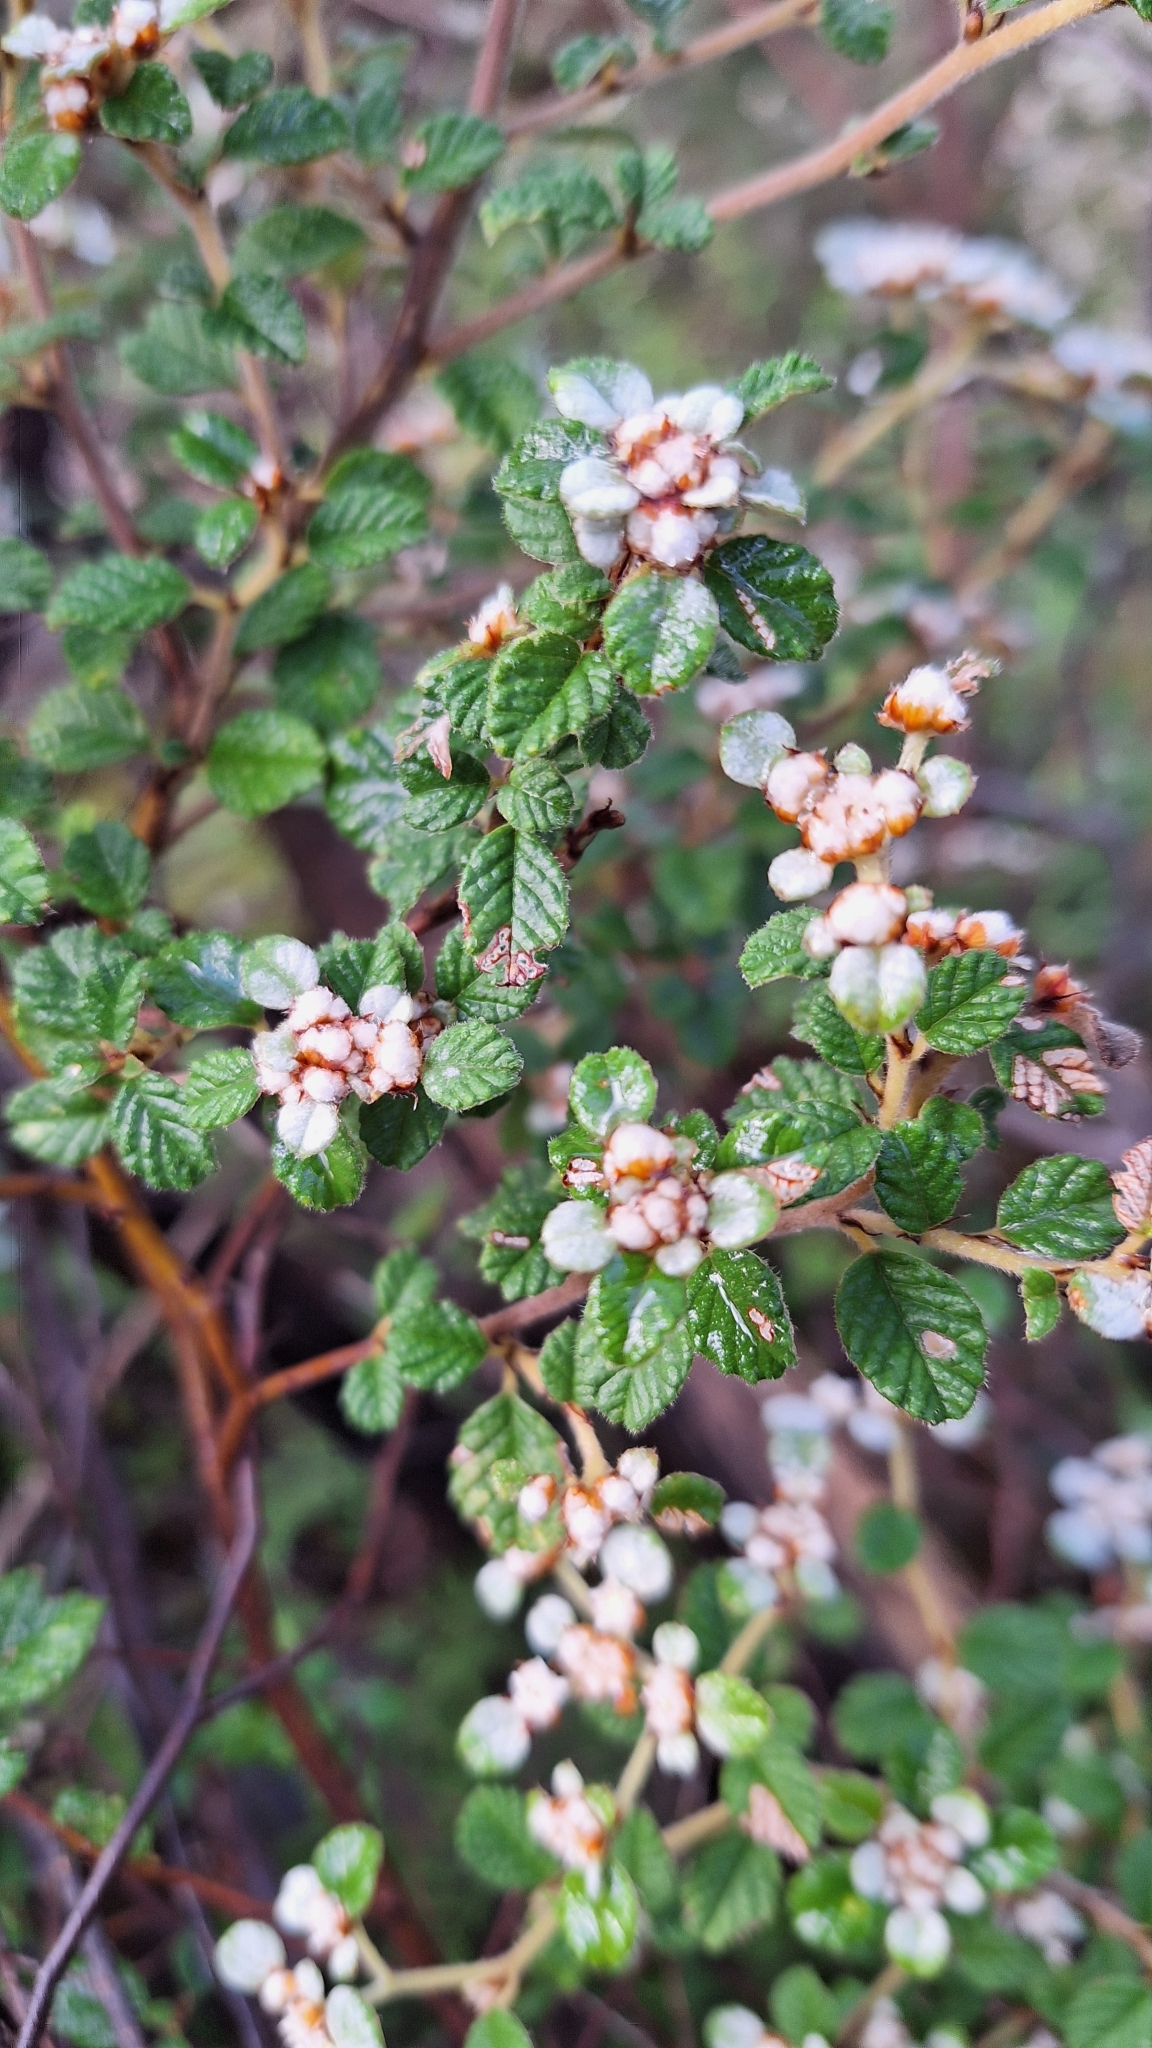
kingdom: Plantae
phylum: Tracheophyta
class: Magnoliopsida
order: Rosales
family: Rhamnaceae
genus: Spyridium
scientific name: Spyridium parvifolium
